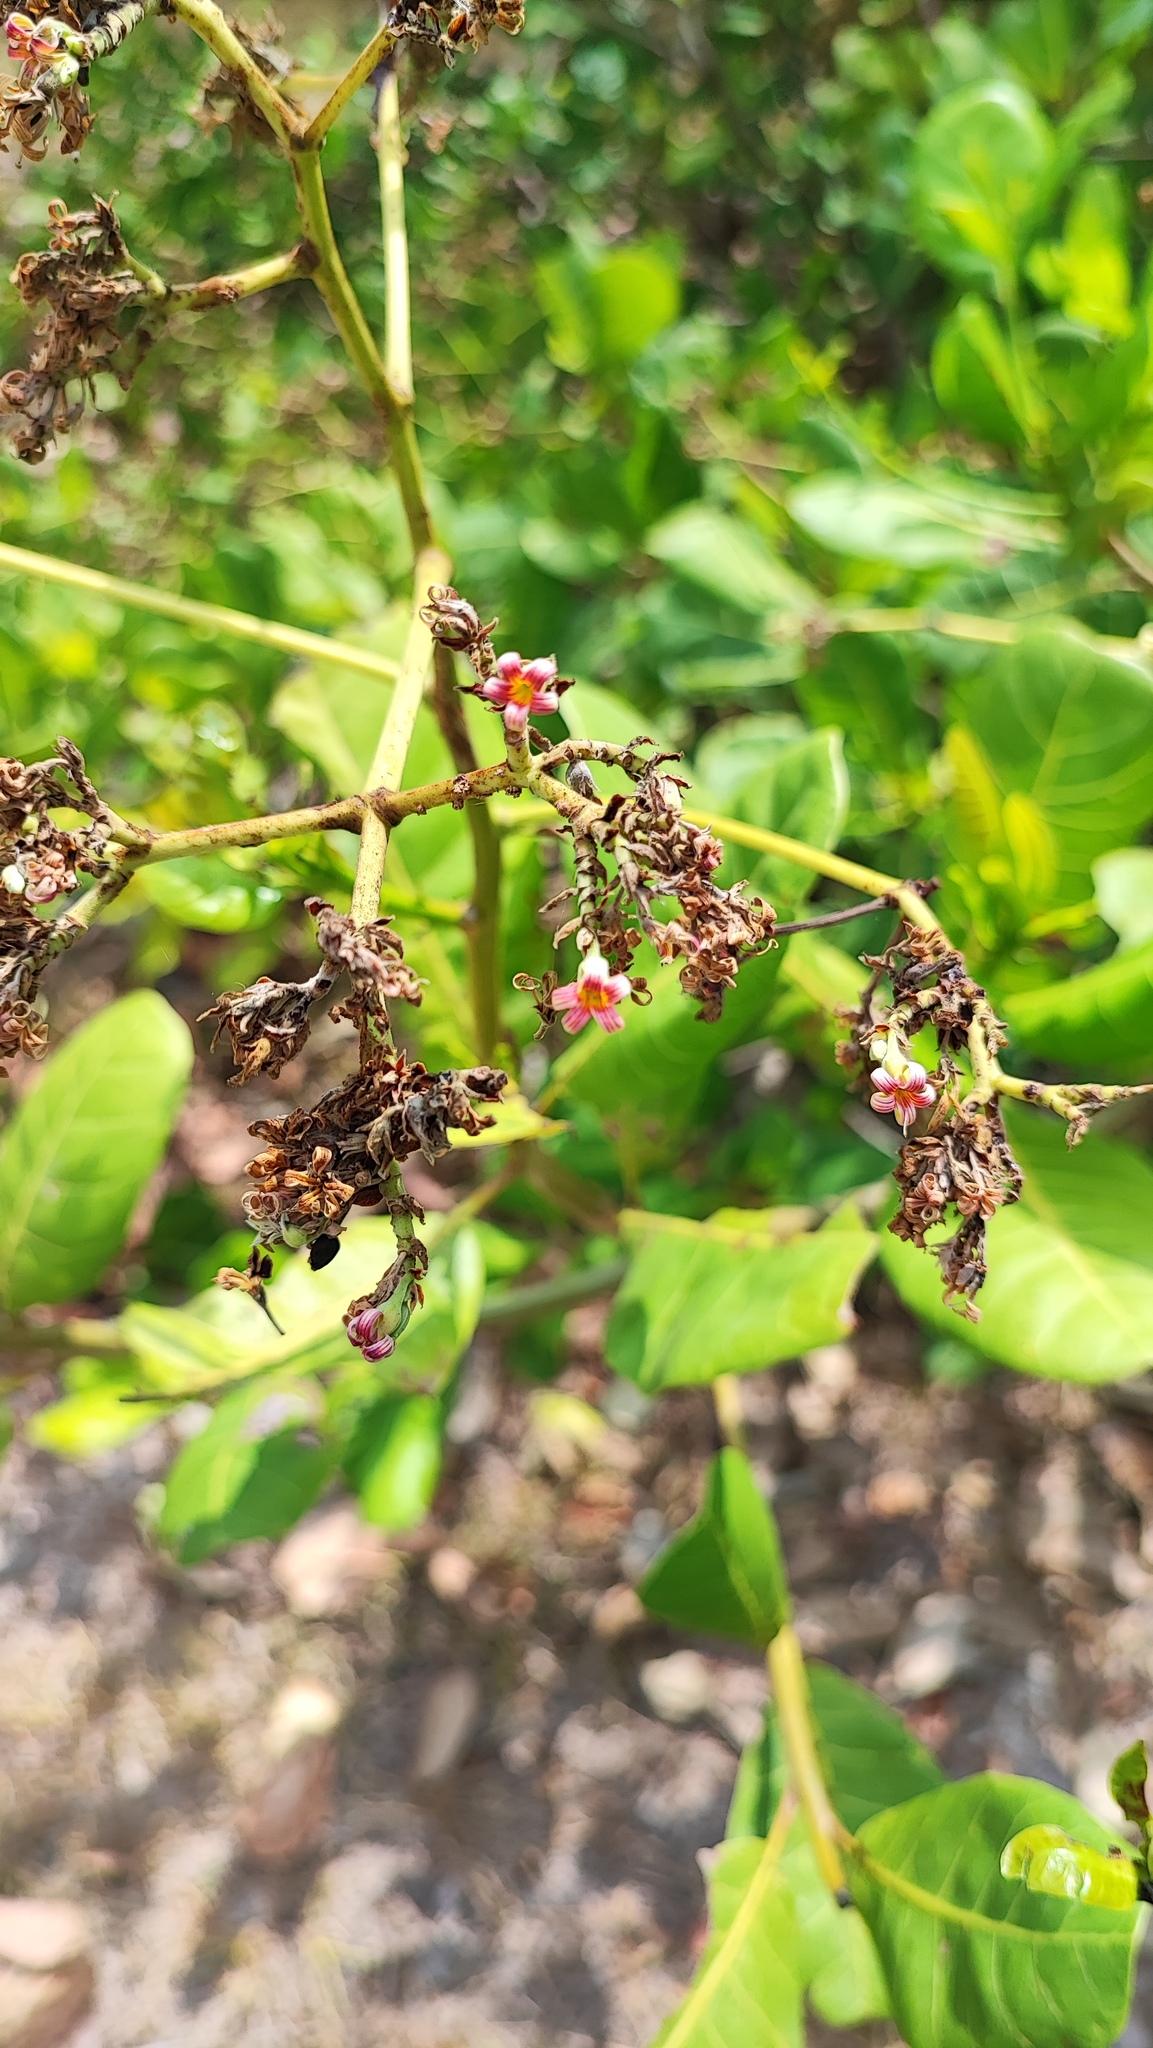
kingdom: Plantae
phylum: Tracheophyta
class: Magnoliopsida
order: Sapindales
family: Anacardiaceae
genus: Anacardium
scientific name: Anacardium occidentale
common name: Cashew
